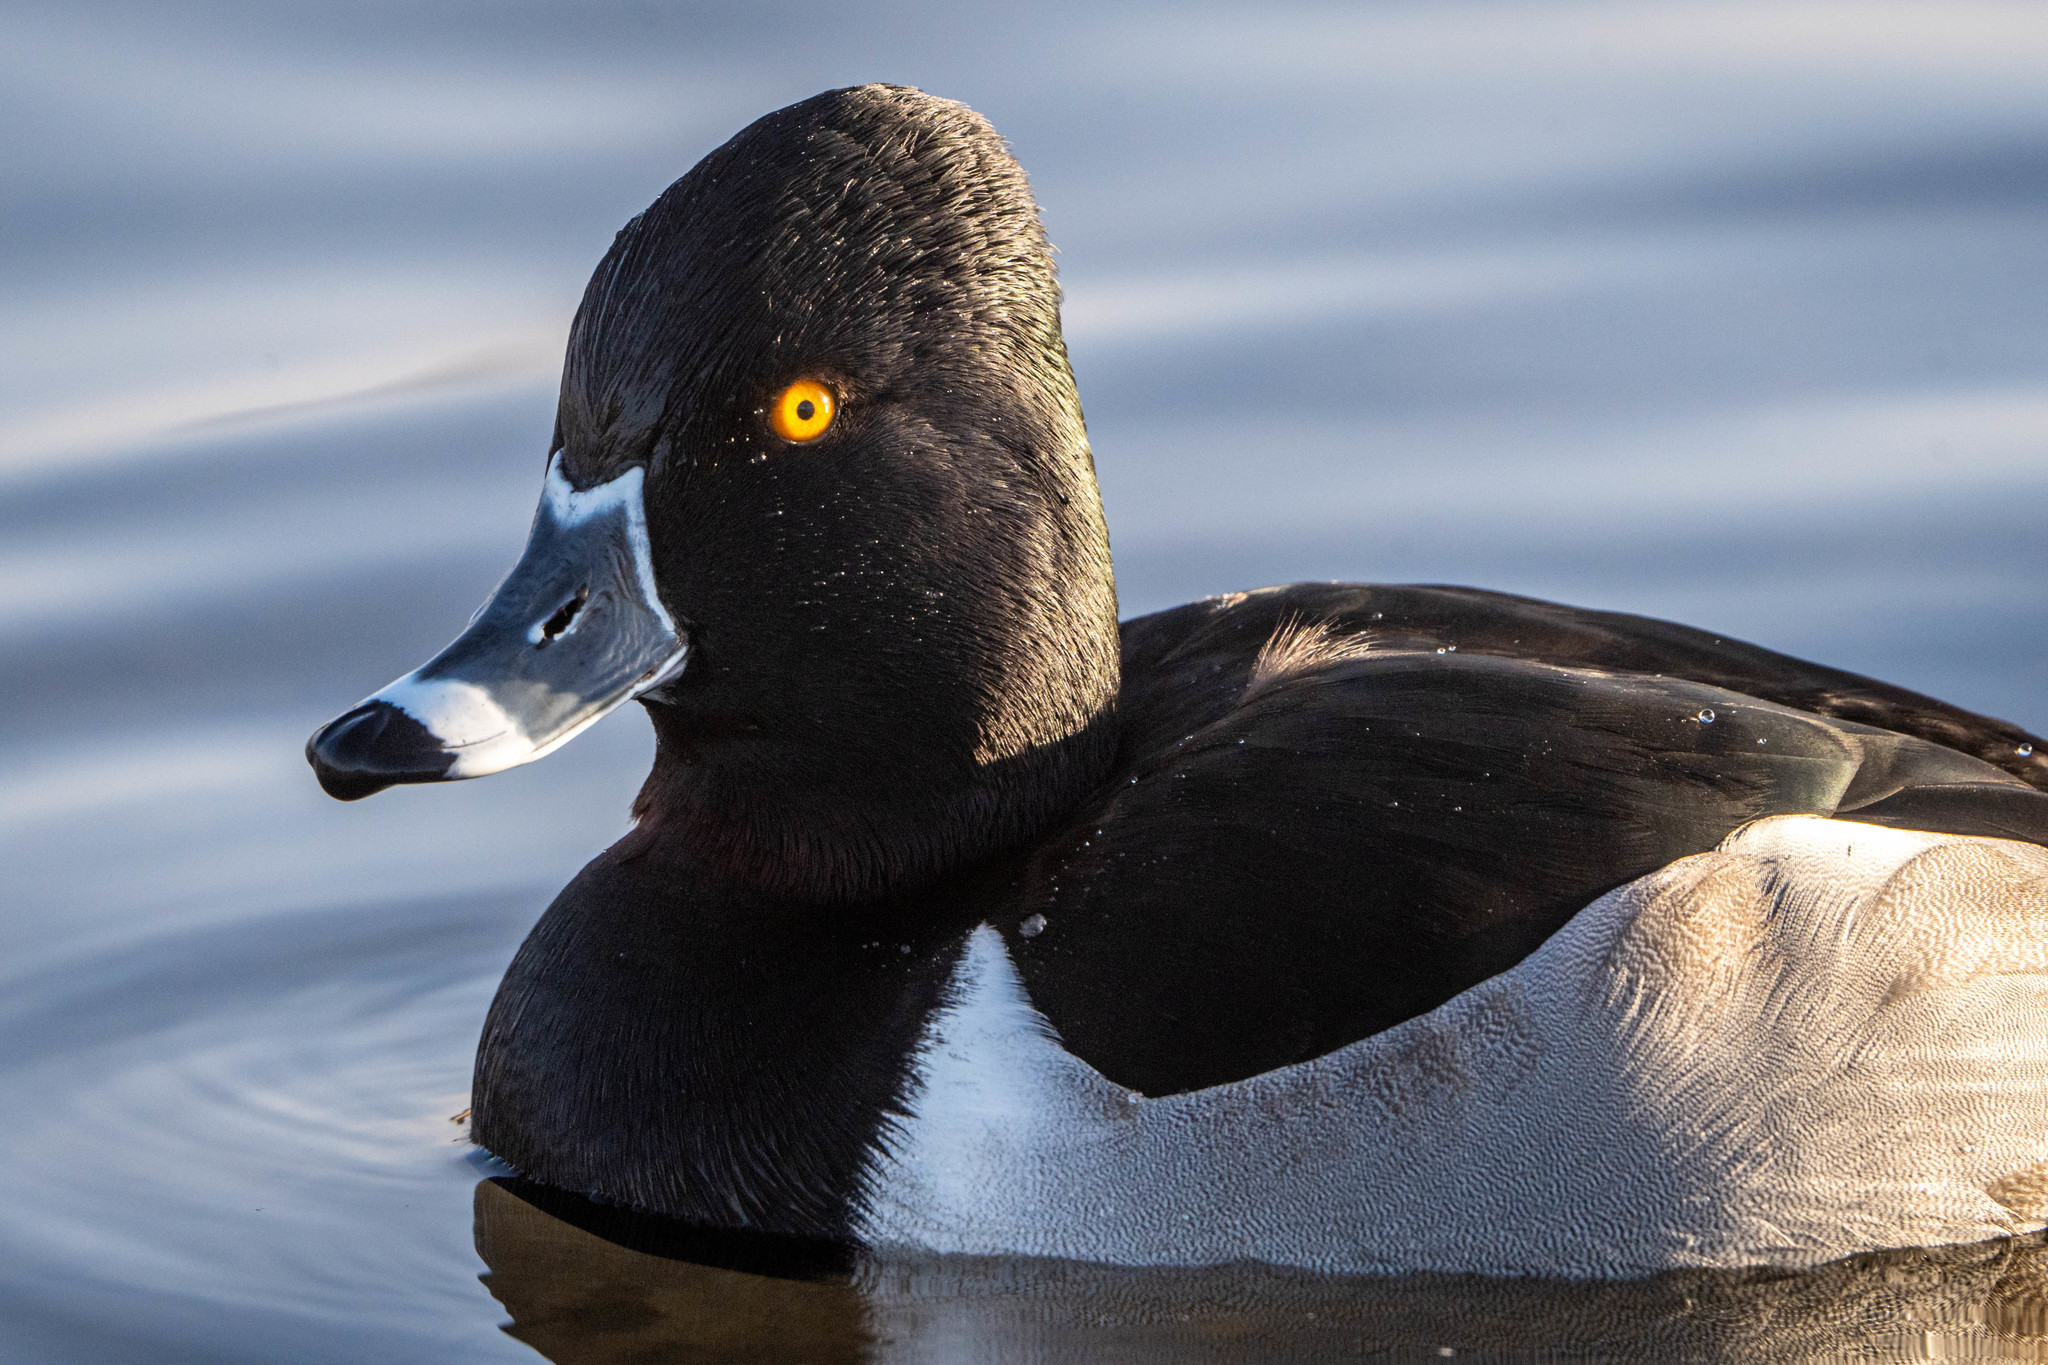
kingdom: Animalia
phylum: Chordata
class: Aves
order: Anseriformes
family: Anatidae
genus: Aythya
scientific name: Aythya collaris
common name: Ring-necked duck
